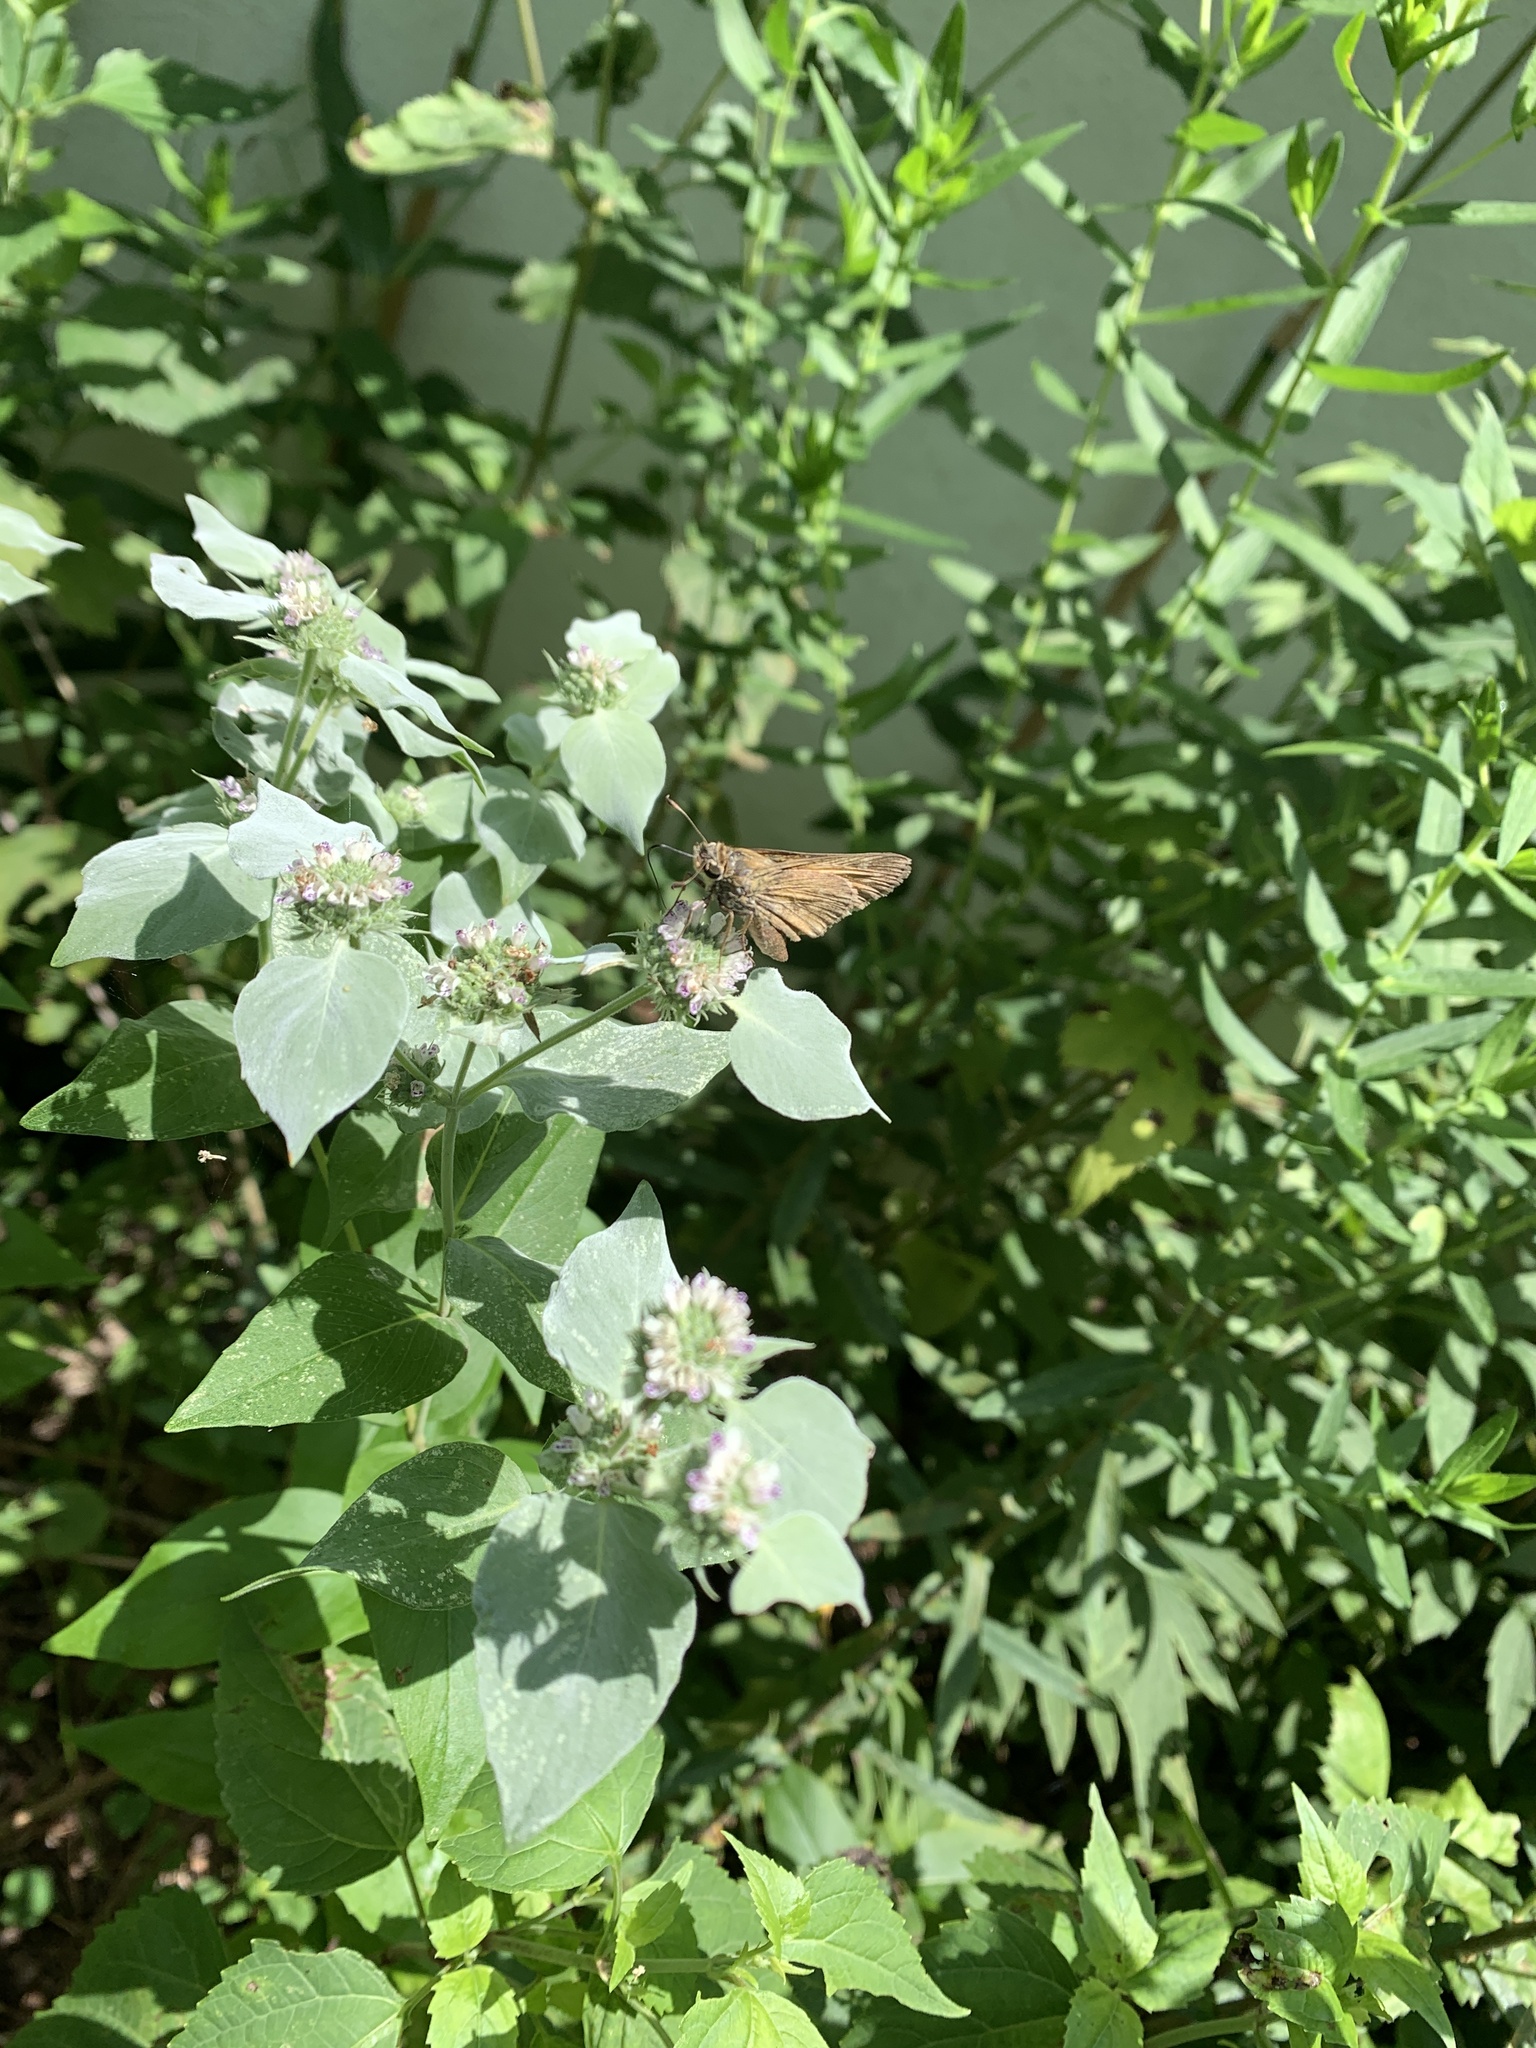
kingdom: Animalia
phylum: Arthropoda
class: Insecta
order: Lepidoptera
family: Hesperiidae
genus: Atalopedes
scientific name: Atalopedes
